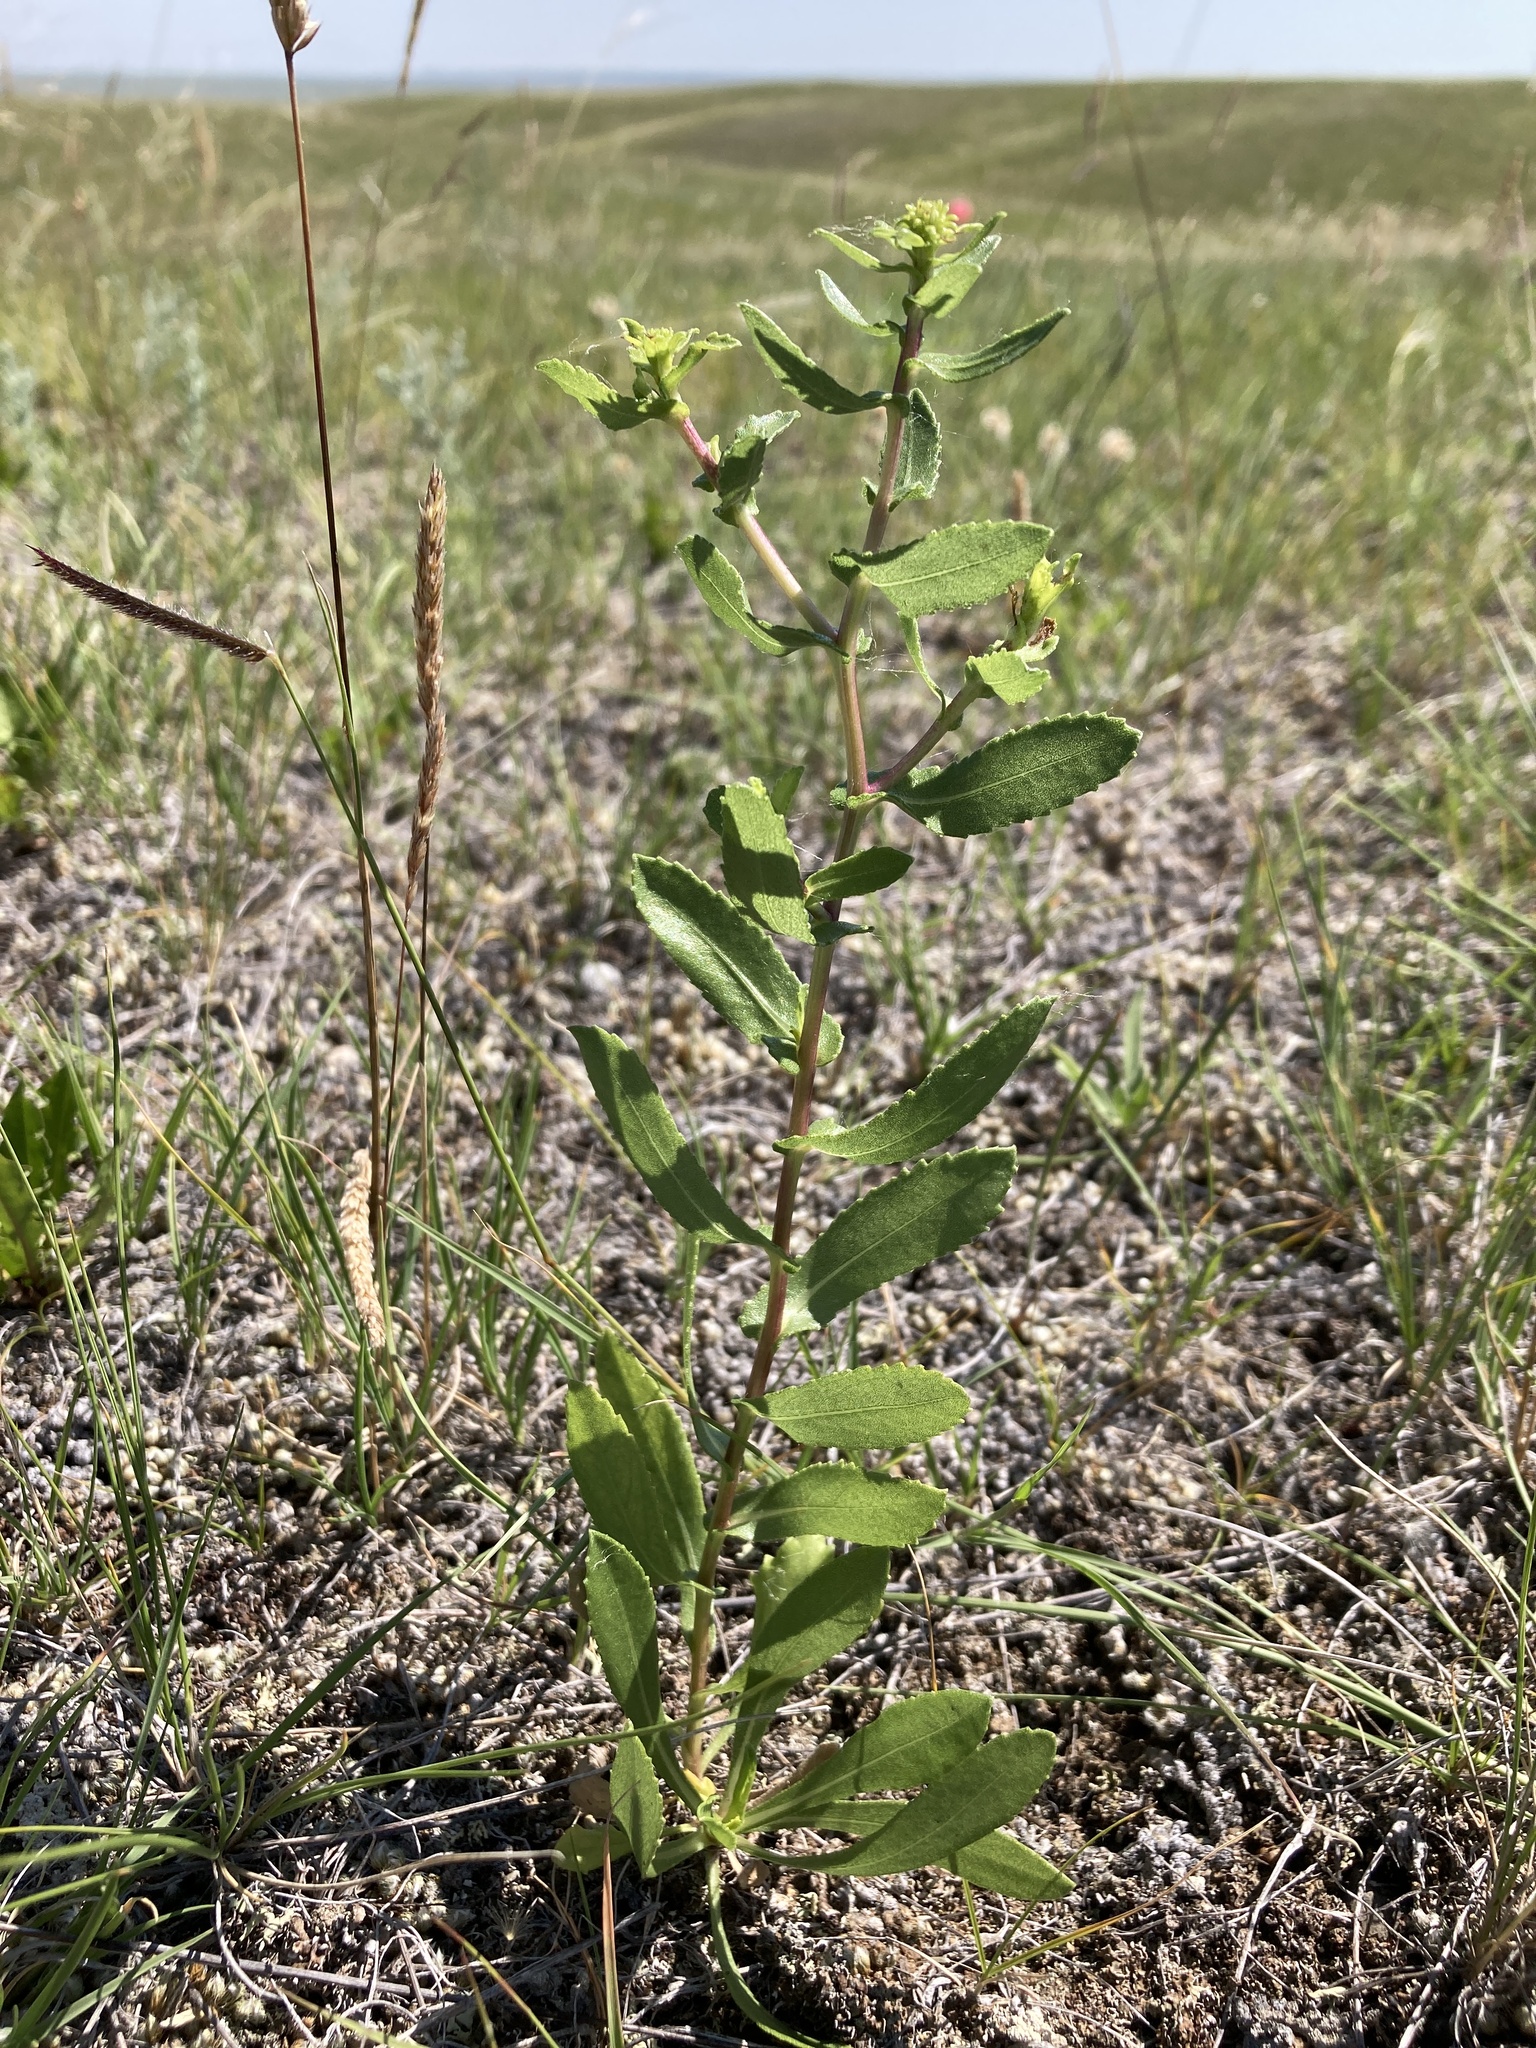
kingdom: Plantae
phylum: Tracheophyta
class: Magnoliopsida
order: Asterales
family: Asteraceae
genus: Grindelia
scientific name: Grindelia squarrosa
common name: Curly-cup gumweed
